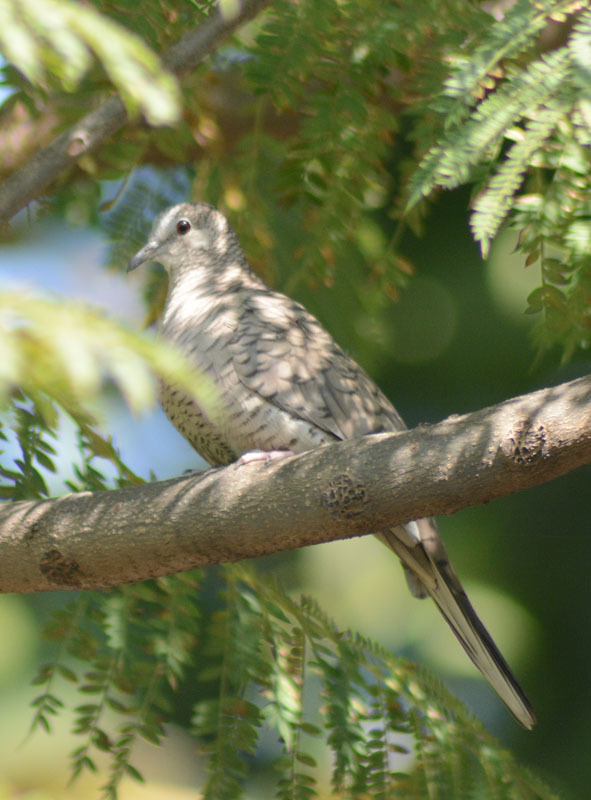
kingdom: Animalia
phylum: Chordata
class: Aves
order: Columbiformes
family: Columbidae
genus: Columbina
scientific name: Columbina inca
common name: Inca dove
